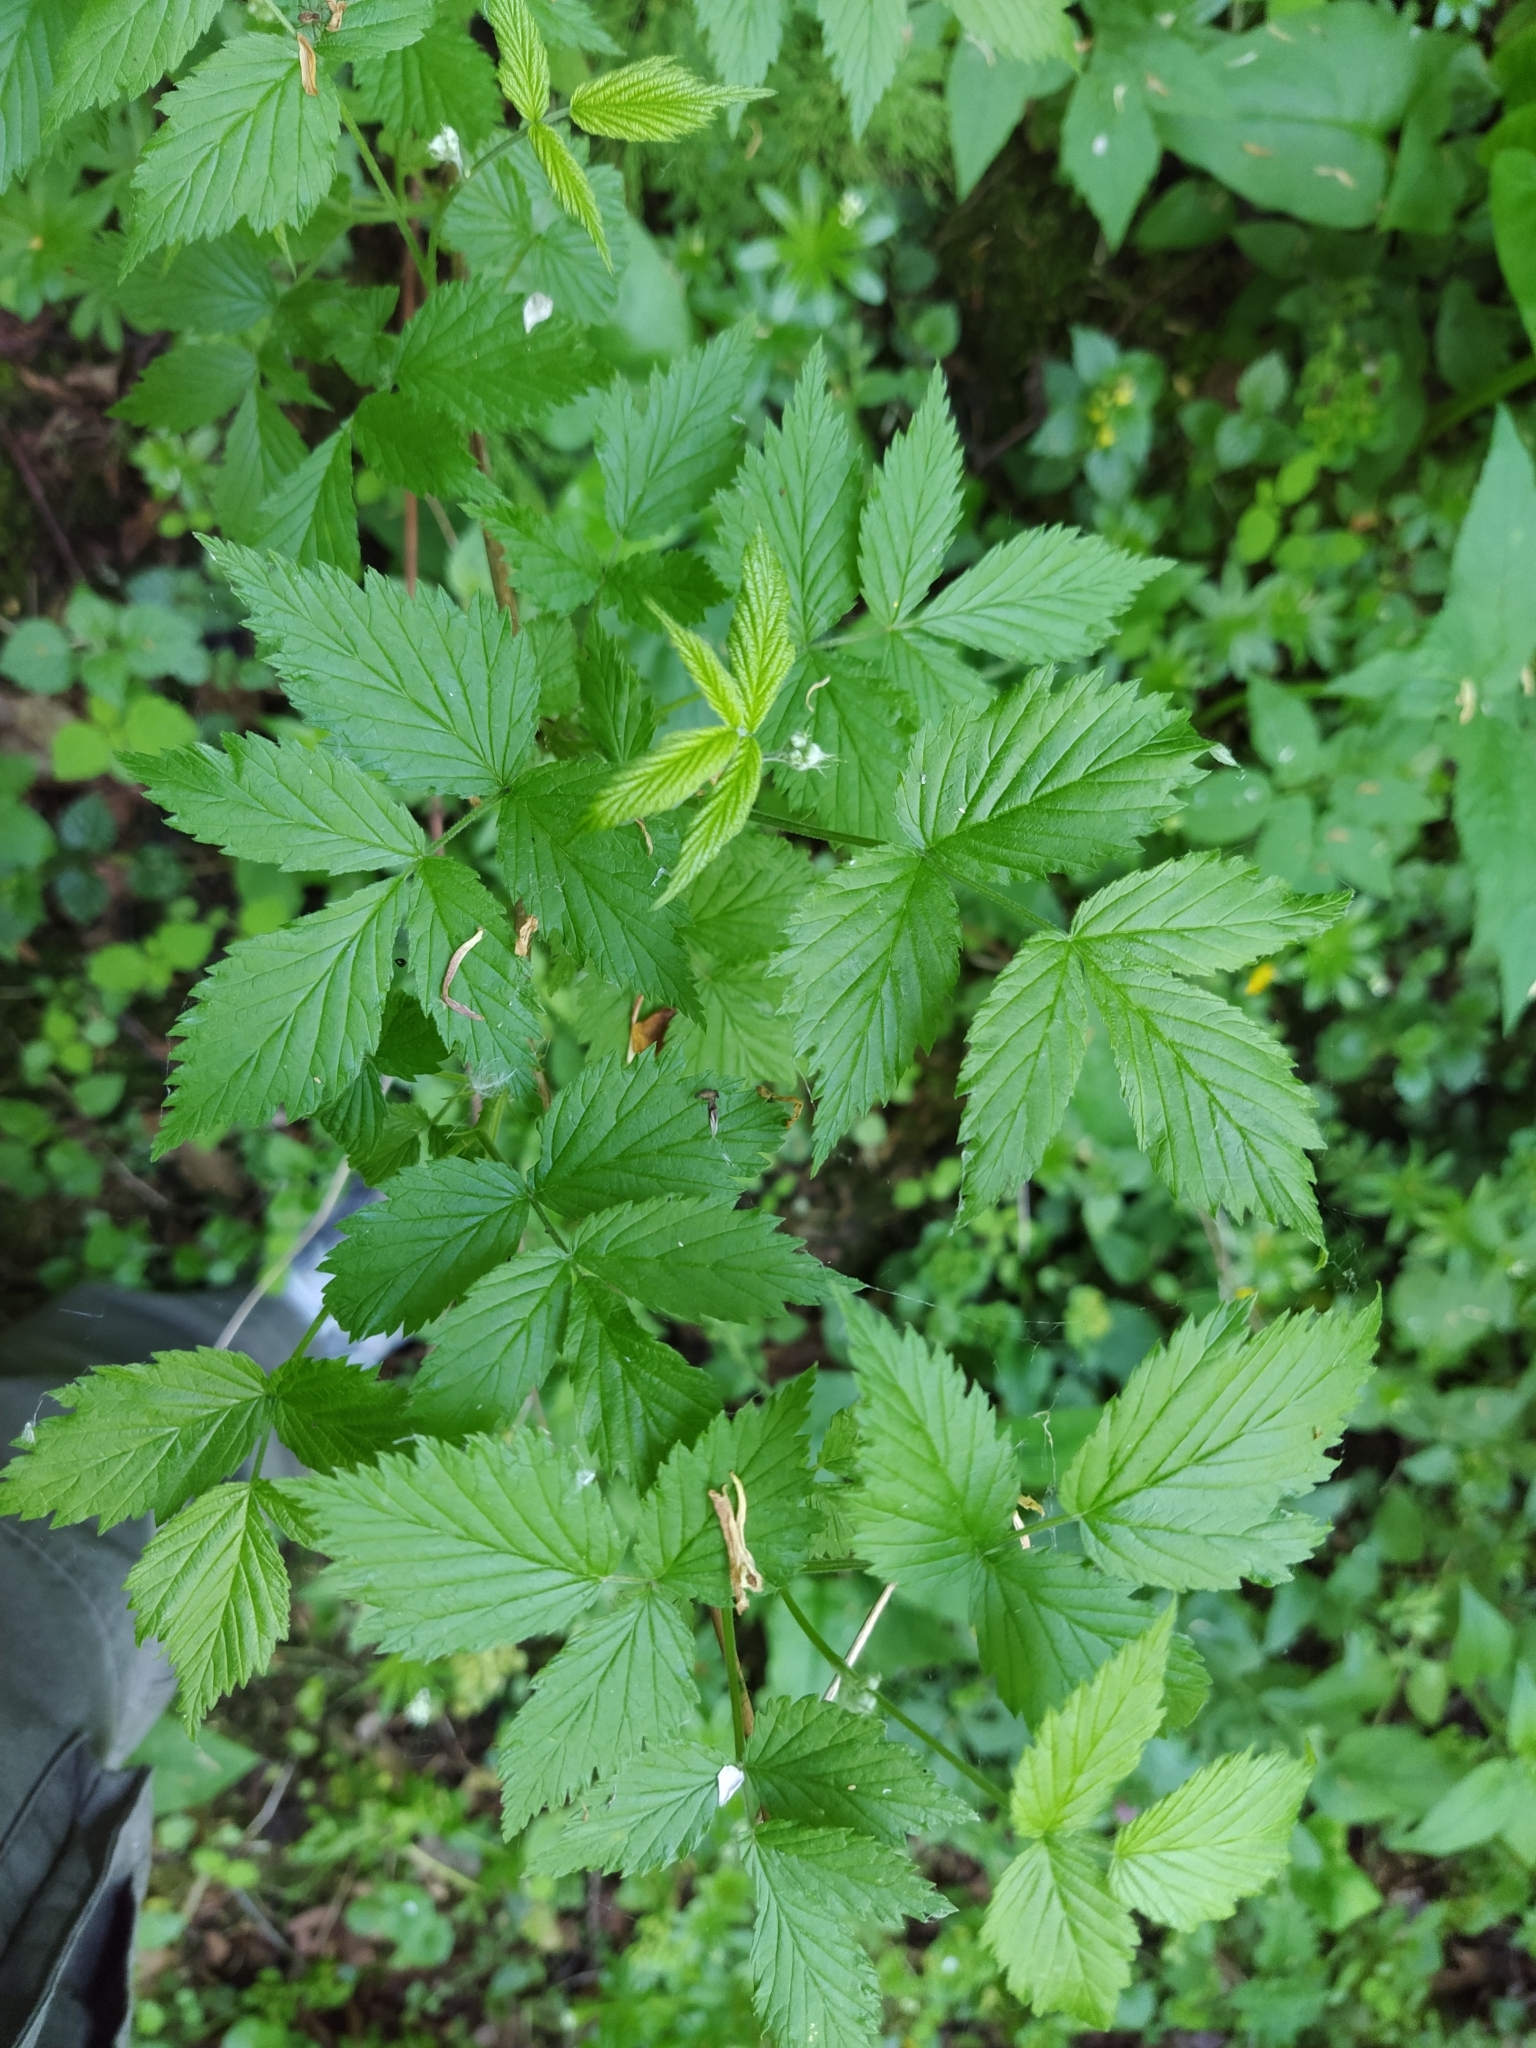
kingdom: Plantae
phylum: Tracheophyta
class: Magnoliopsida
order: Rosales
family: Rosaceae
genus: Rubus
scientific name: Rubus idaeus
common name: Raspberry
